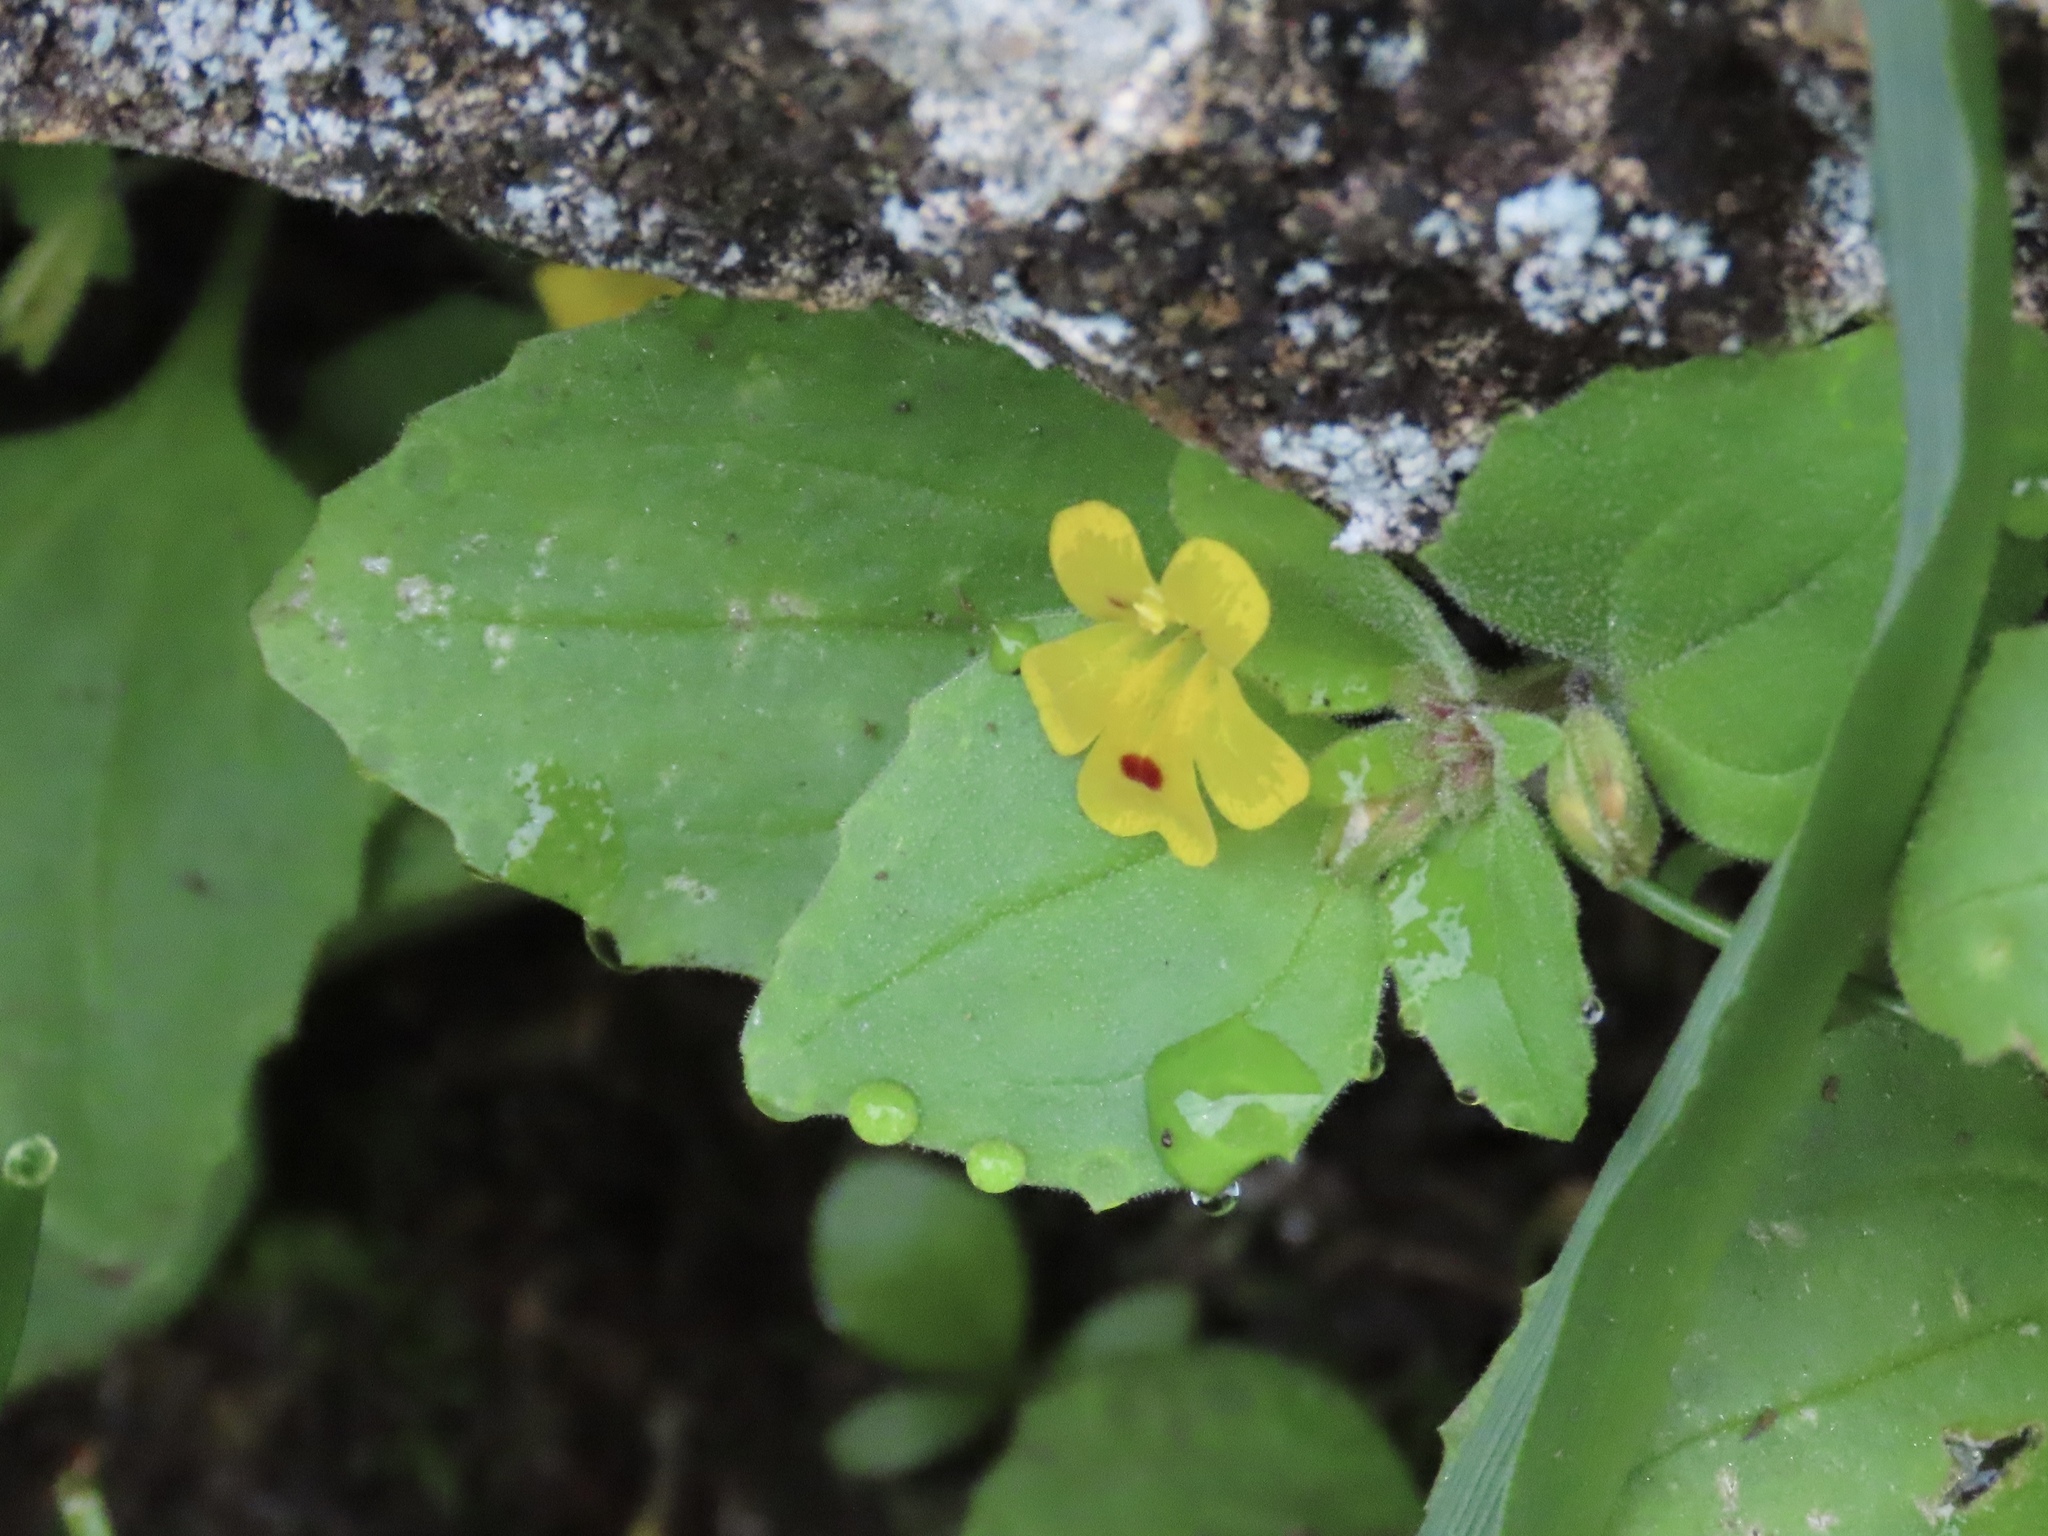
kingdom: Plantae
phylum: Tracheophyta
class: Magnoliopsida
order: Lamiales
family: Phrymaceae
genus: Erythranthe
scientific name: Erythranthe alsinoides
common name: Chickweed monkeyflower
